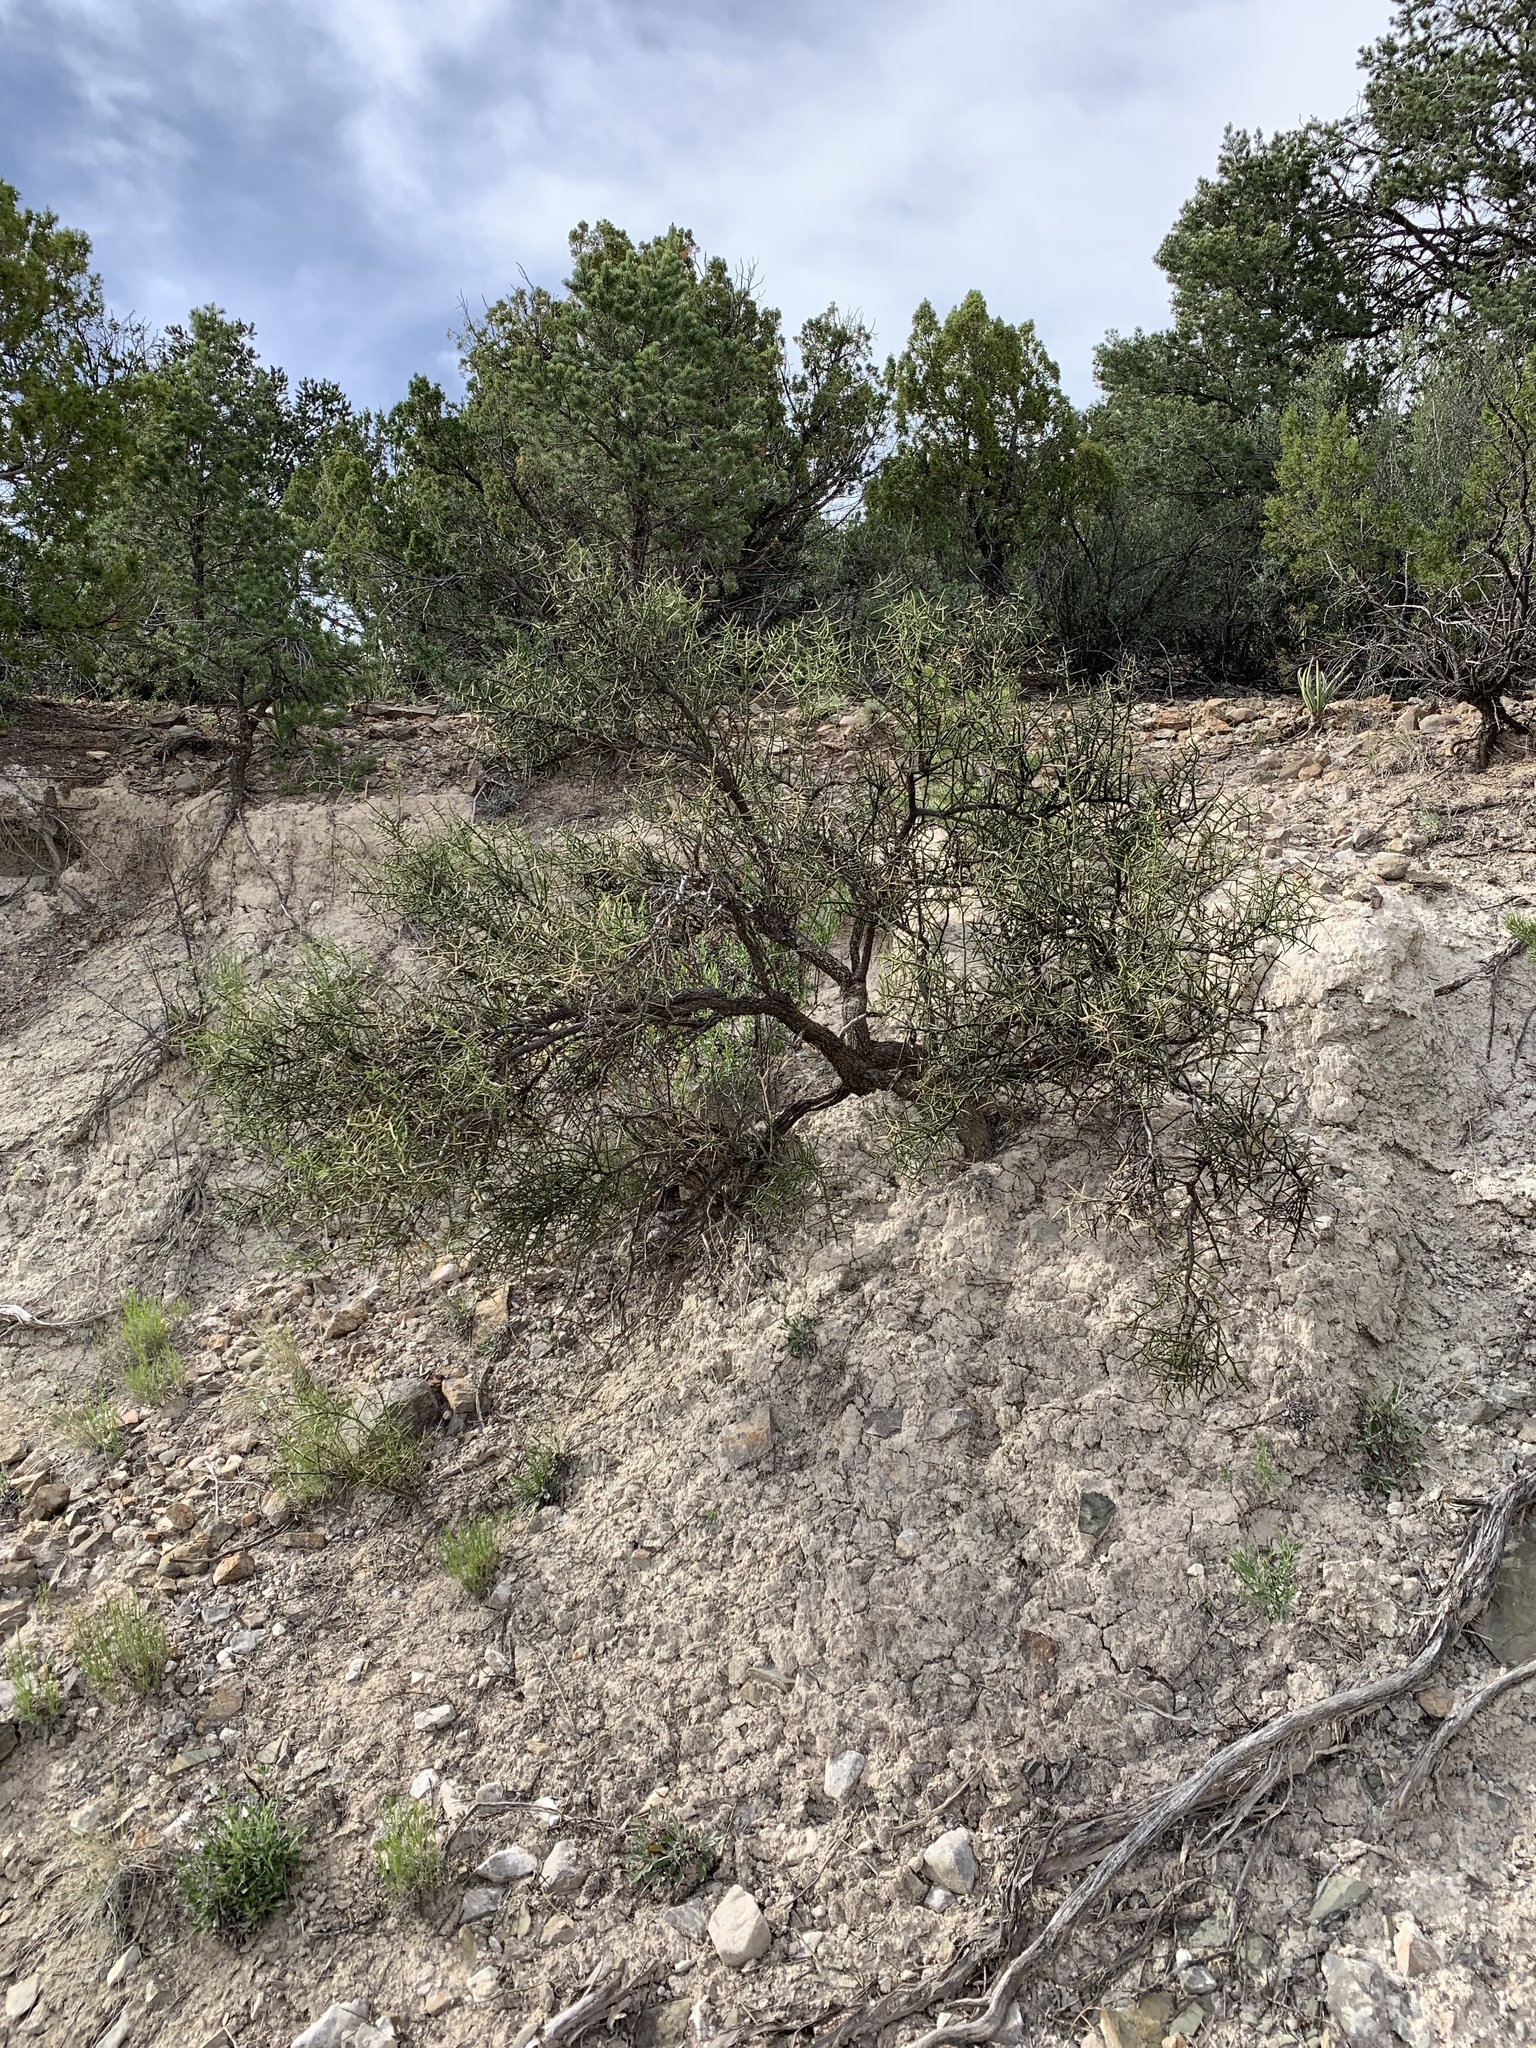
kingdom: Plantae
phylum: Tracheophyta
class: Magnoliopsida
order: Brassicales
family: Koeberliniaceae
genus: Koeberlinia
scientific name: Koeberlinia spinosa
